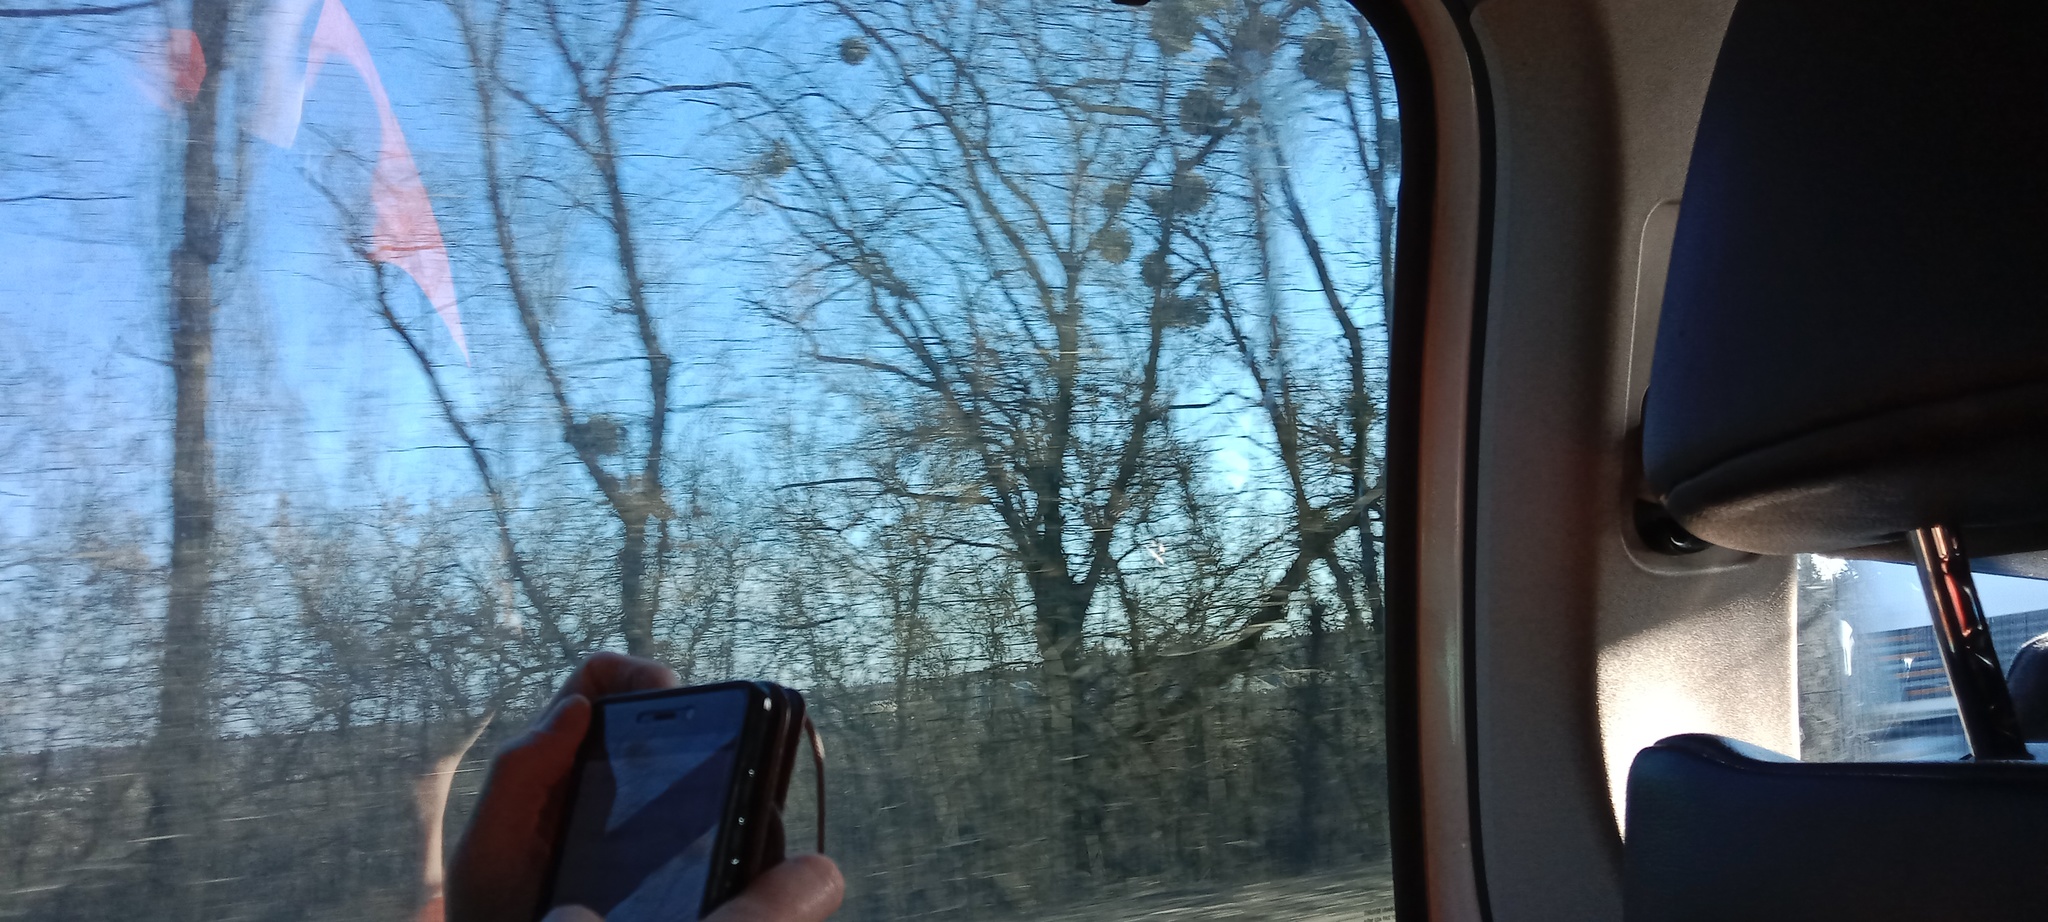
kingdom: Plantae
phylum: Tracheophyta
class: Magnoliopsida
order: Santalales
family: Viscaceae
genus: Viscum
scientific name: Viscum album
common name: Mistletoe
